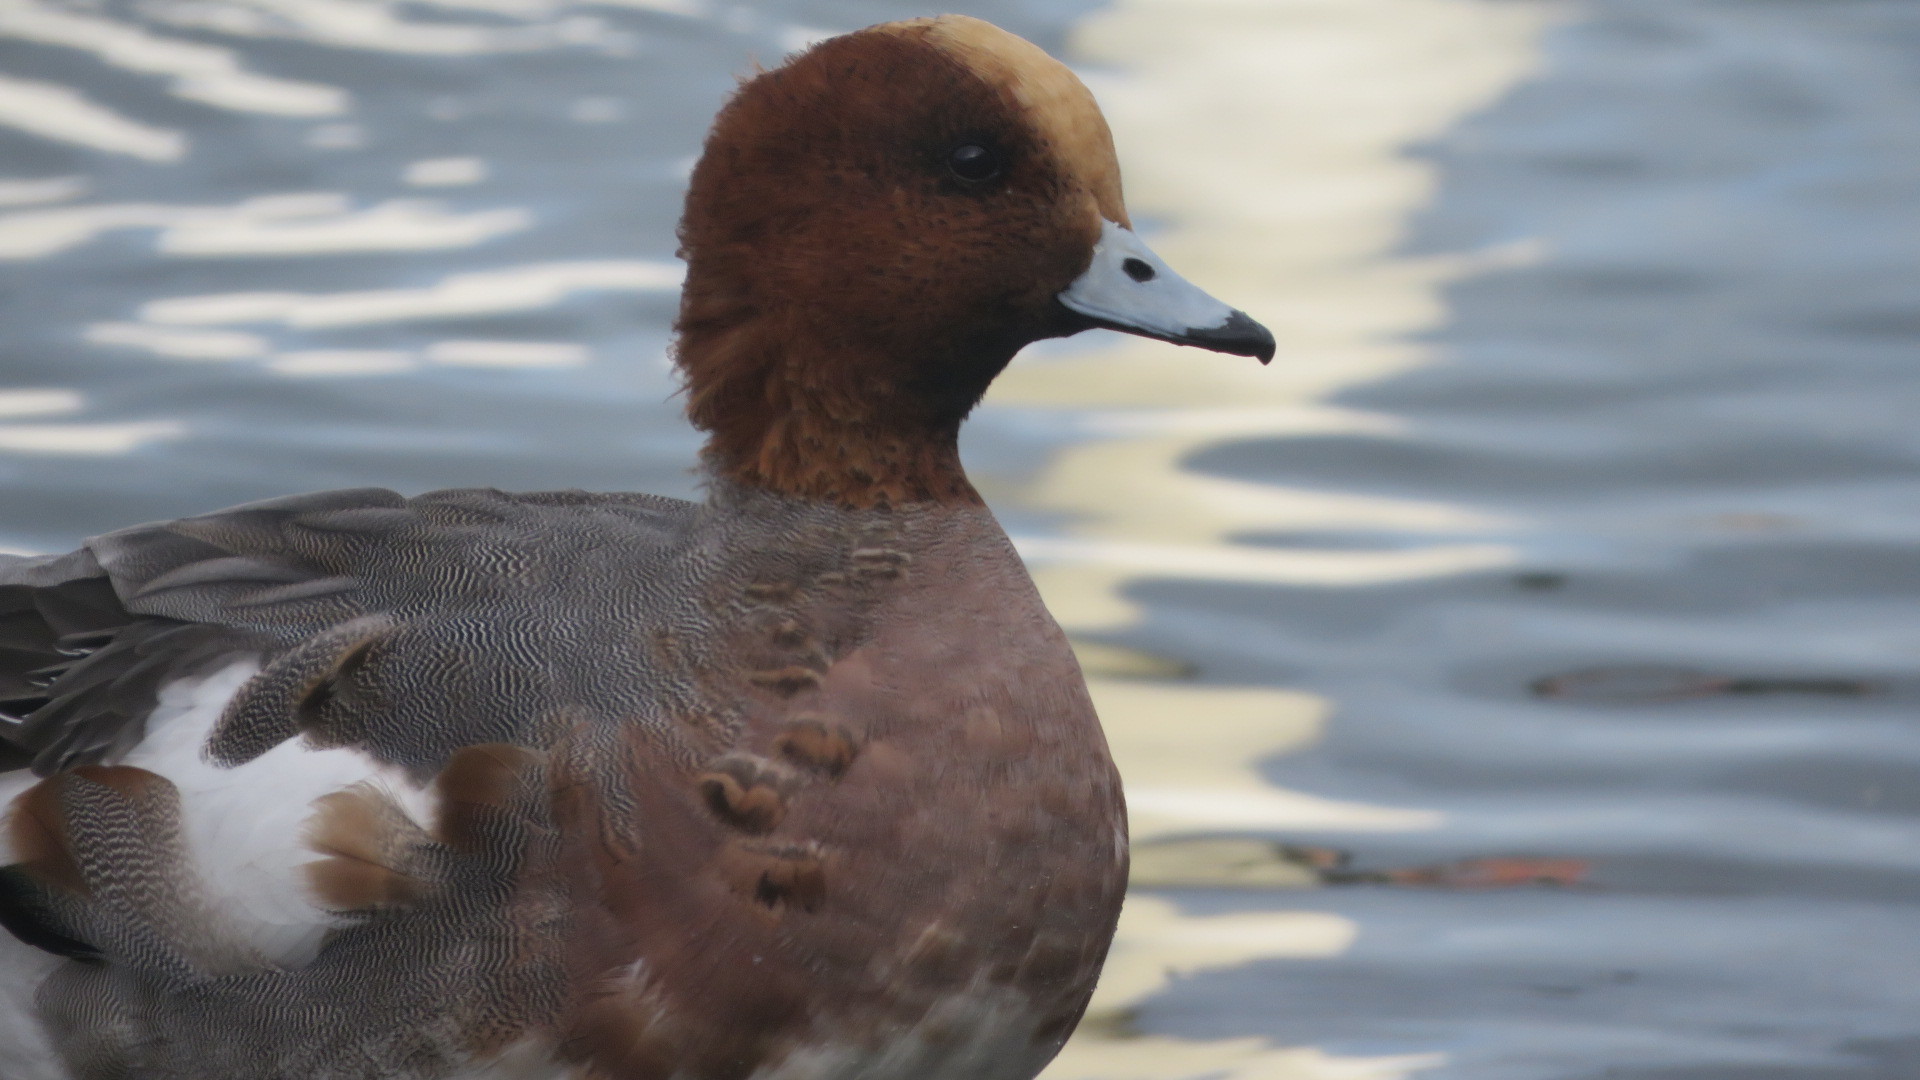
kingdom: Animalia
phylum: Chordata
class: Aves
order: Anseriformes
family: Anatidae
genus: Mareca
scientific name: Mareca penelope
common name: Eurasian wigeon
